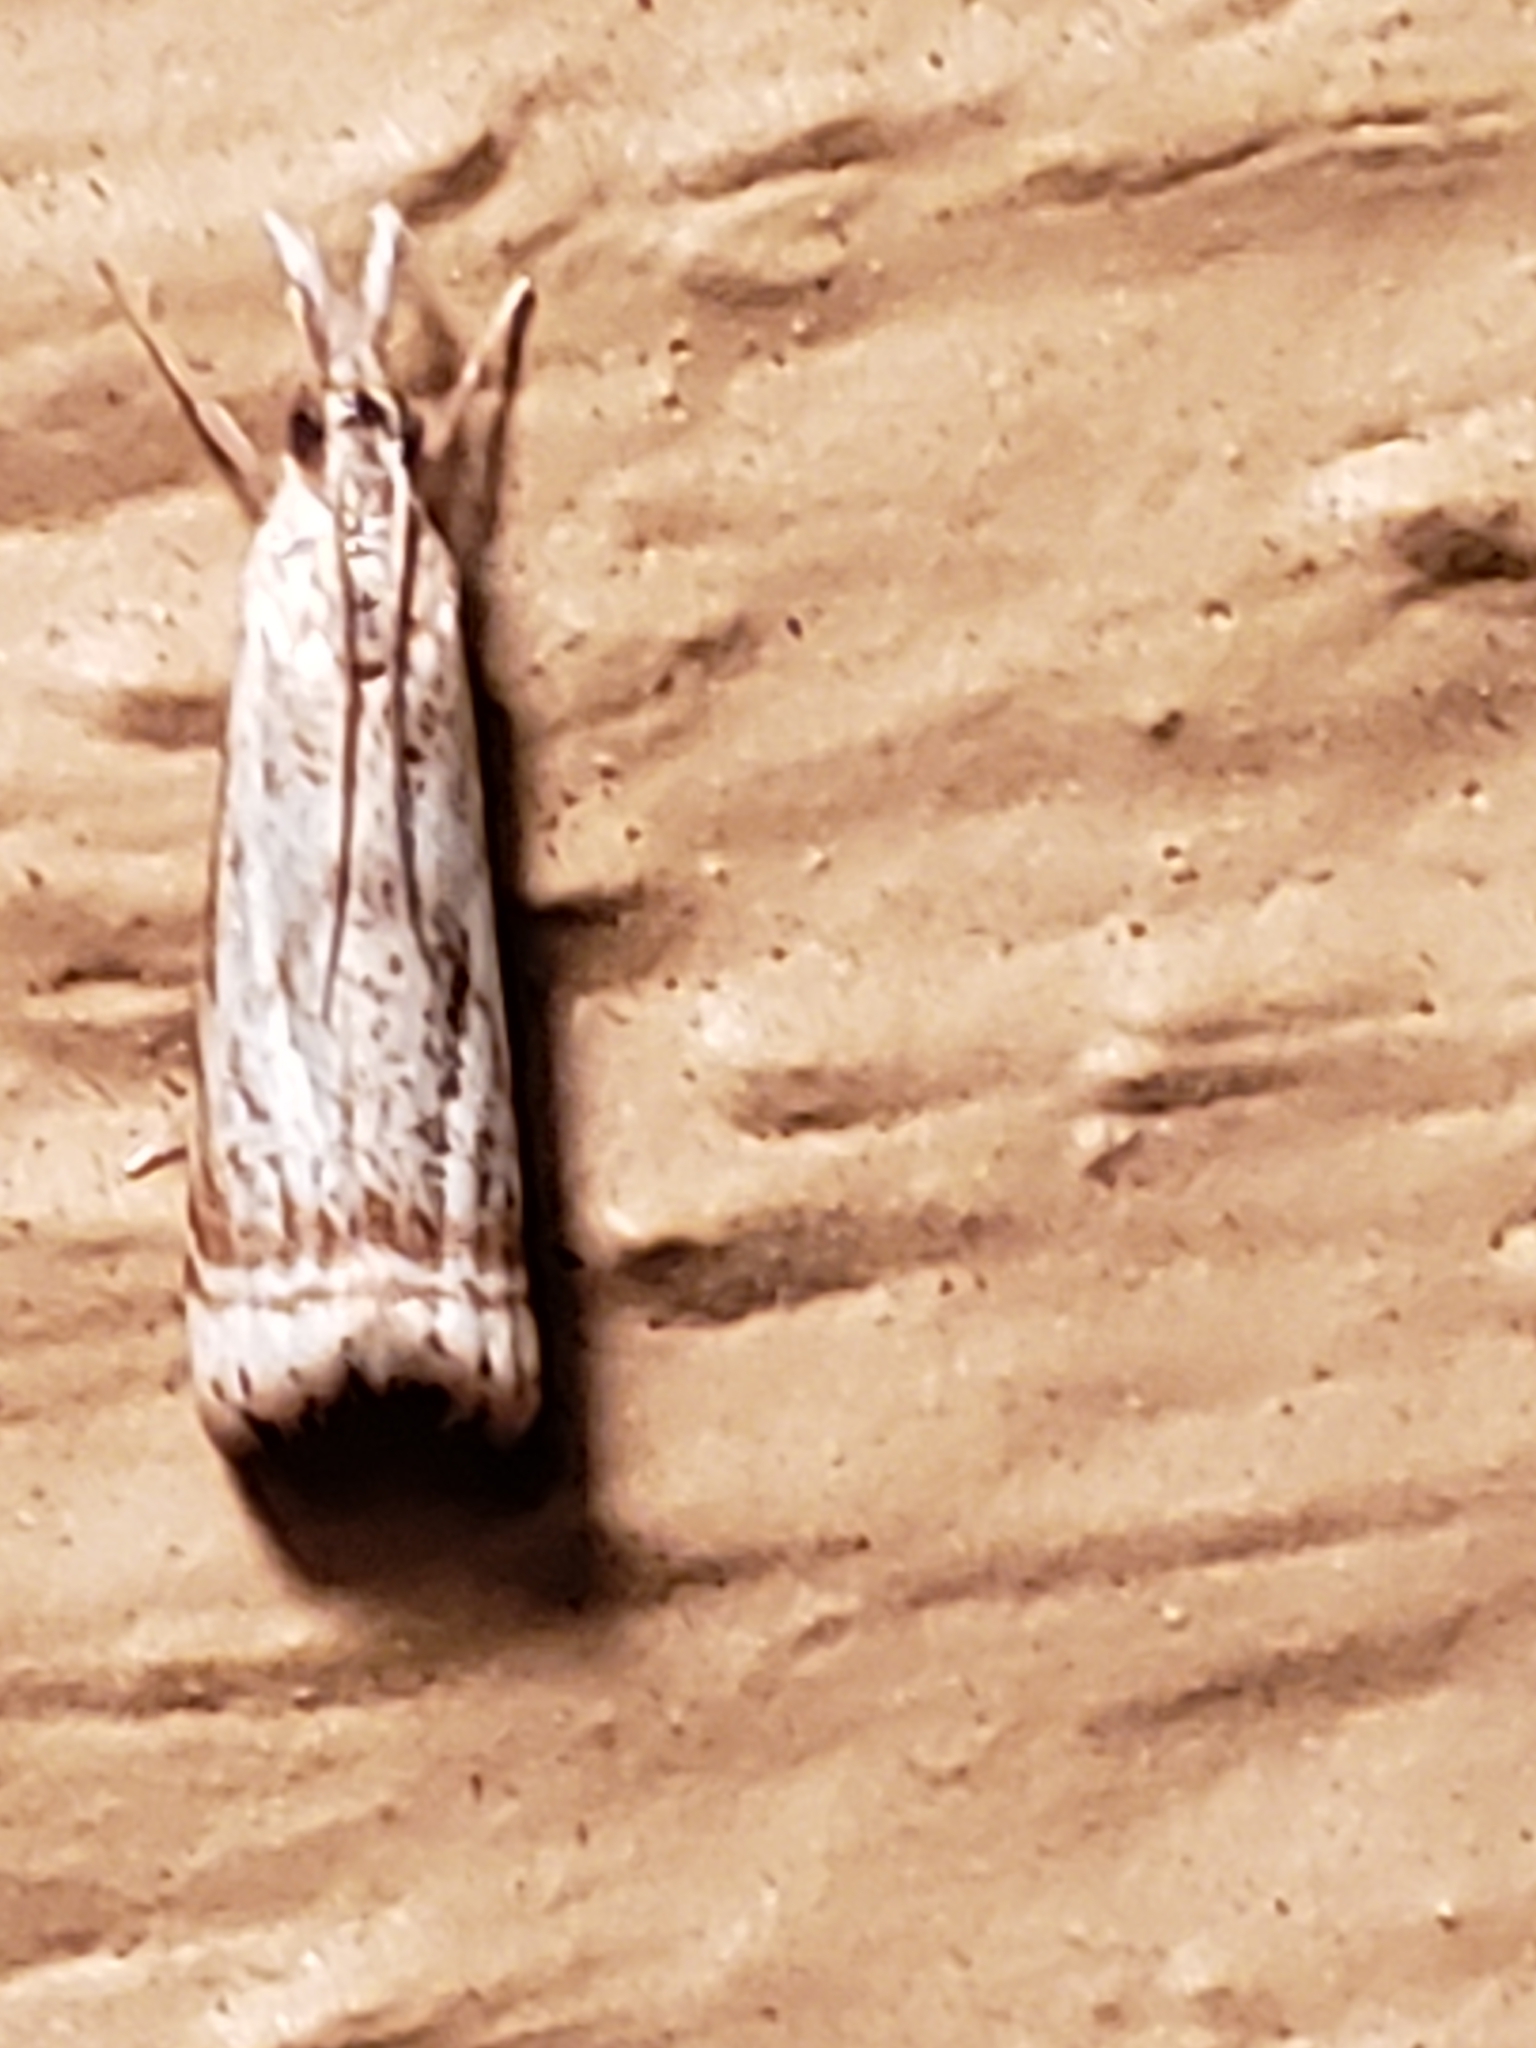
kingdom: Animalia
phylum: Arthropoda
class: Insecta
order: Lepidoptera
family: Crambidae
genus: Microcrambus
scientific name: Microcrambus elegans
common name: Elegant grass-veneer
